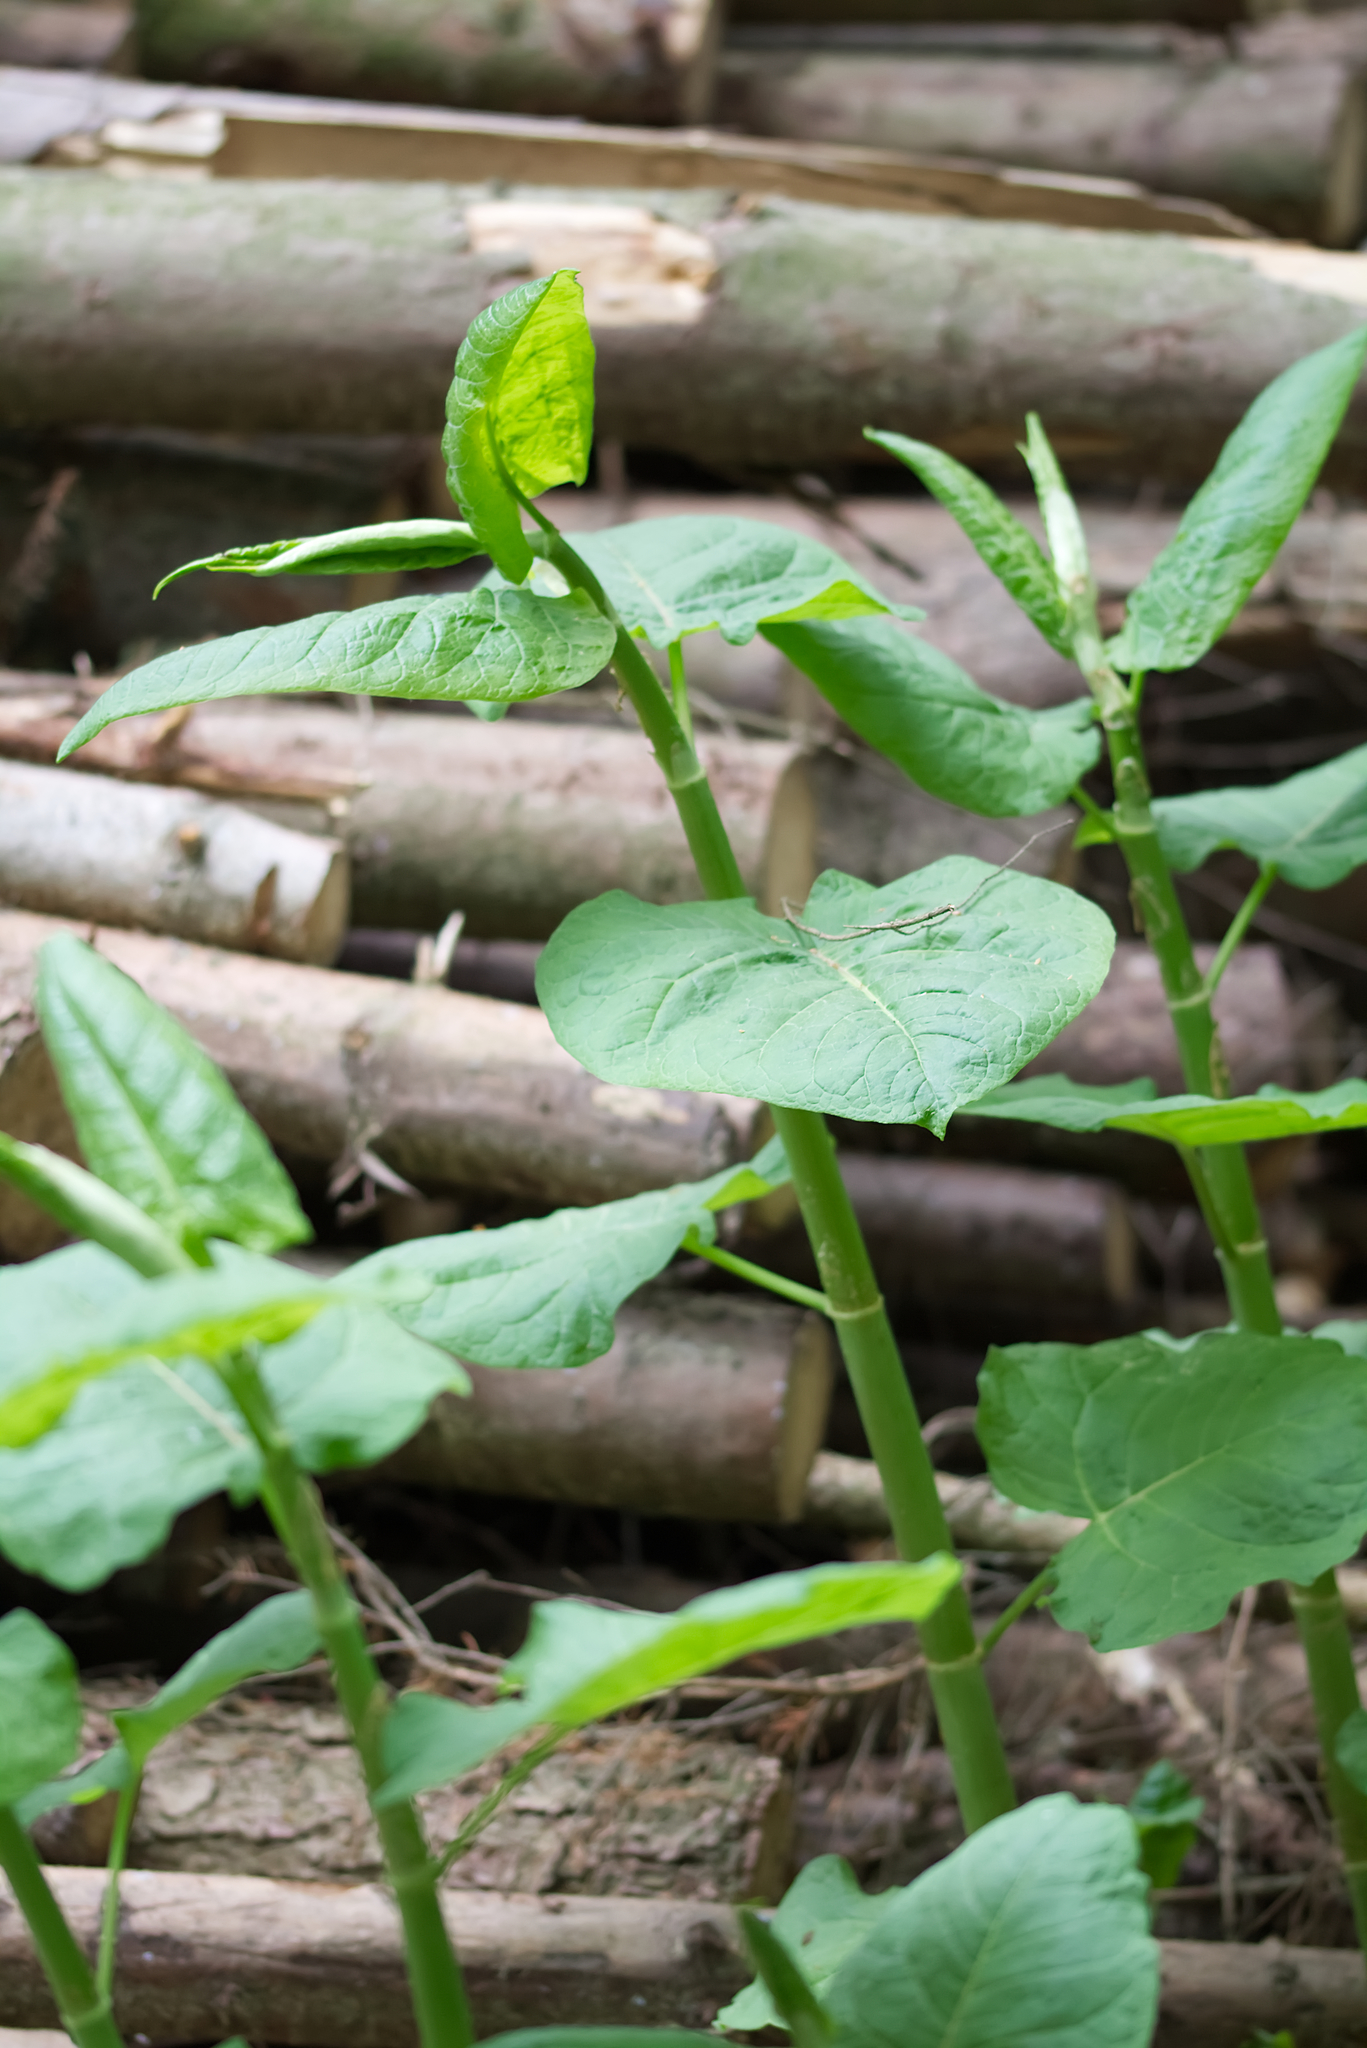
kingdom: Plantae
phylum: Tracheophyta
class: Magnoliopsida
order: Caryophyllales
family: Polygonaceae
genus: Reynoutria
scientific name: Reynoutria sachalinensis
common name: Giant knotweed
